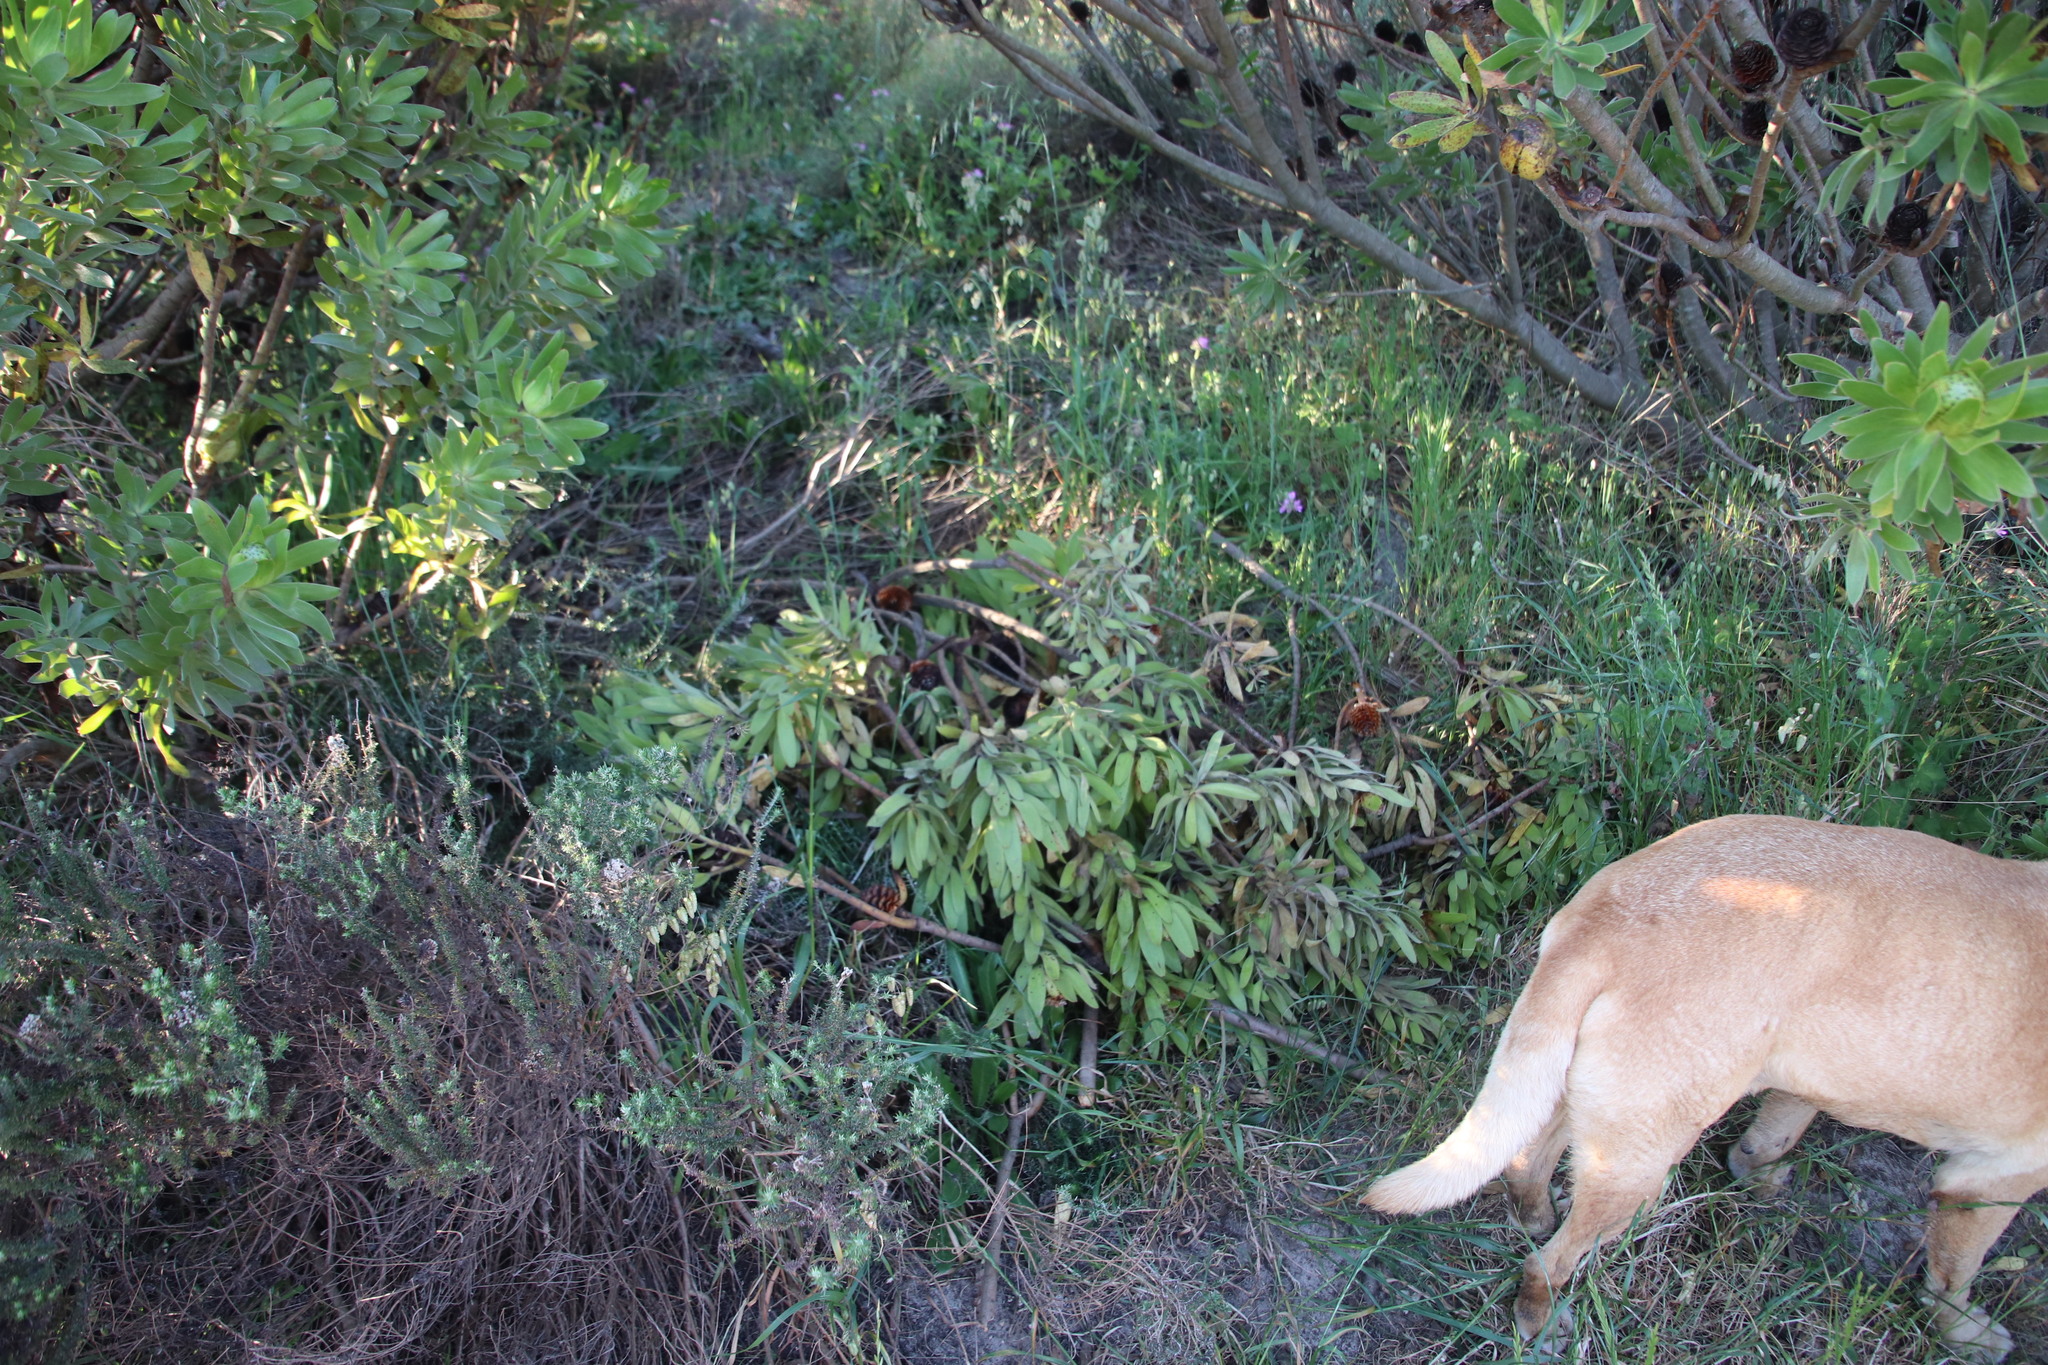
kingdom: Plantae
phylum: Tracheophyta
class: Magnoliopsida
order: Proteales
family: Proteaceae
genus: Leucadendron
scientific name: Leucadendron laureolum
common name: Golden sunshinebush
